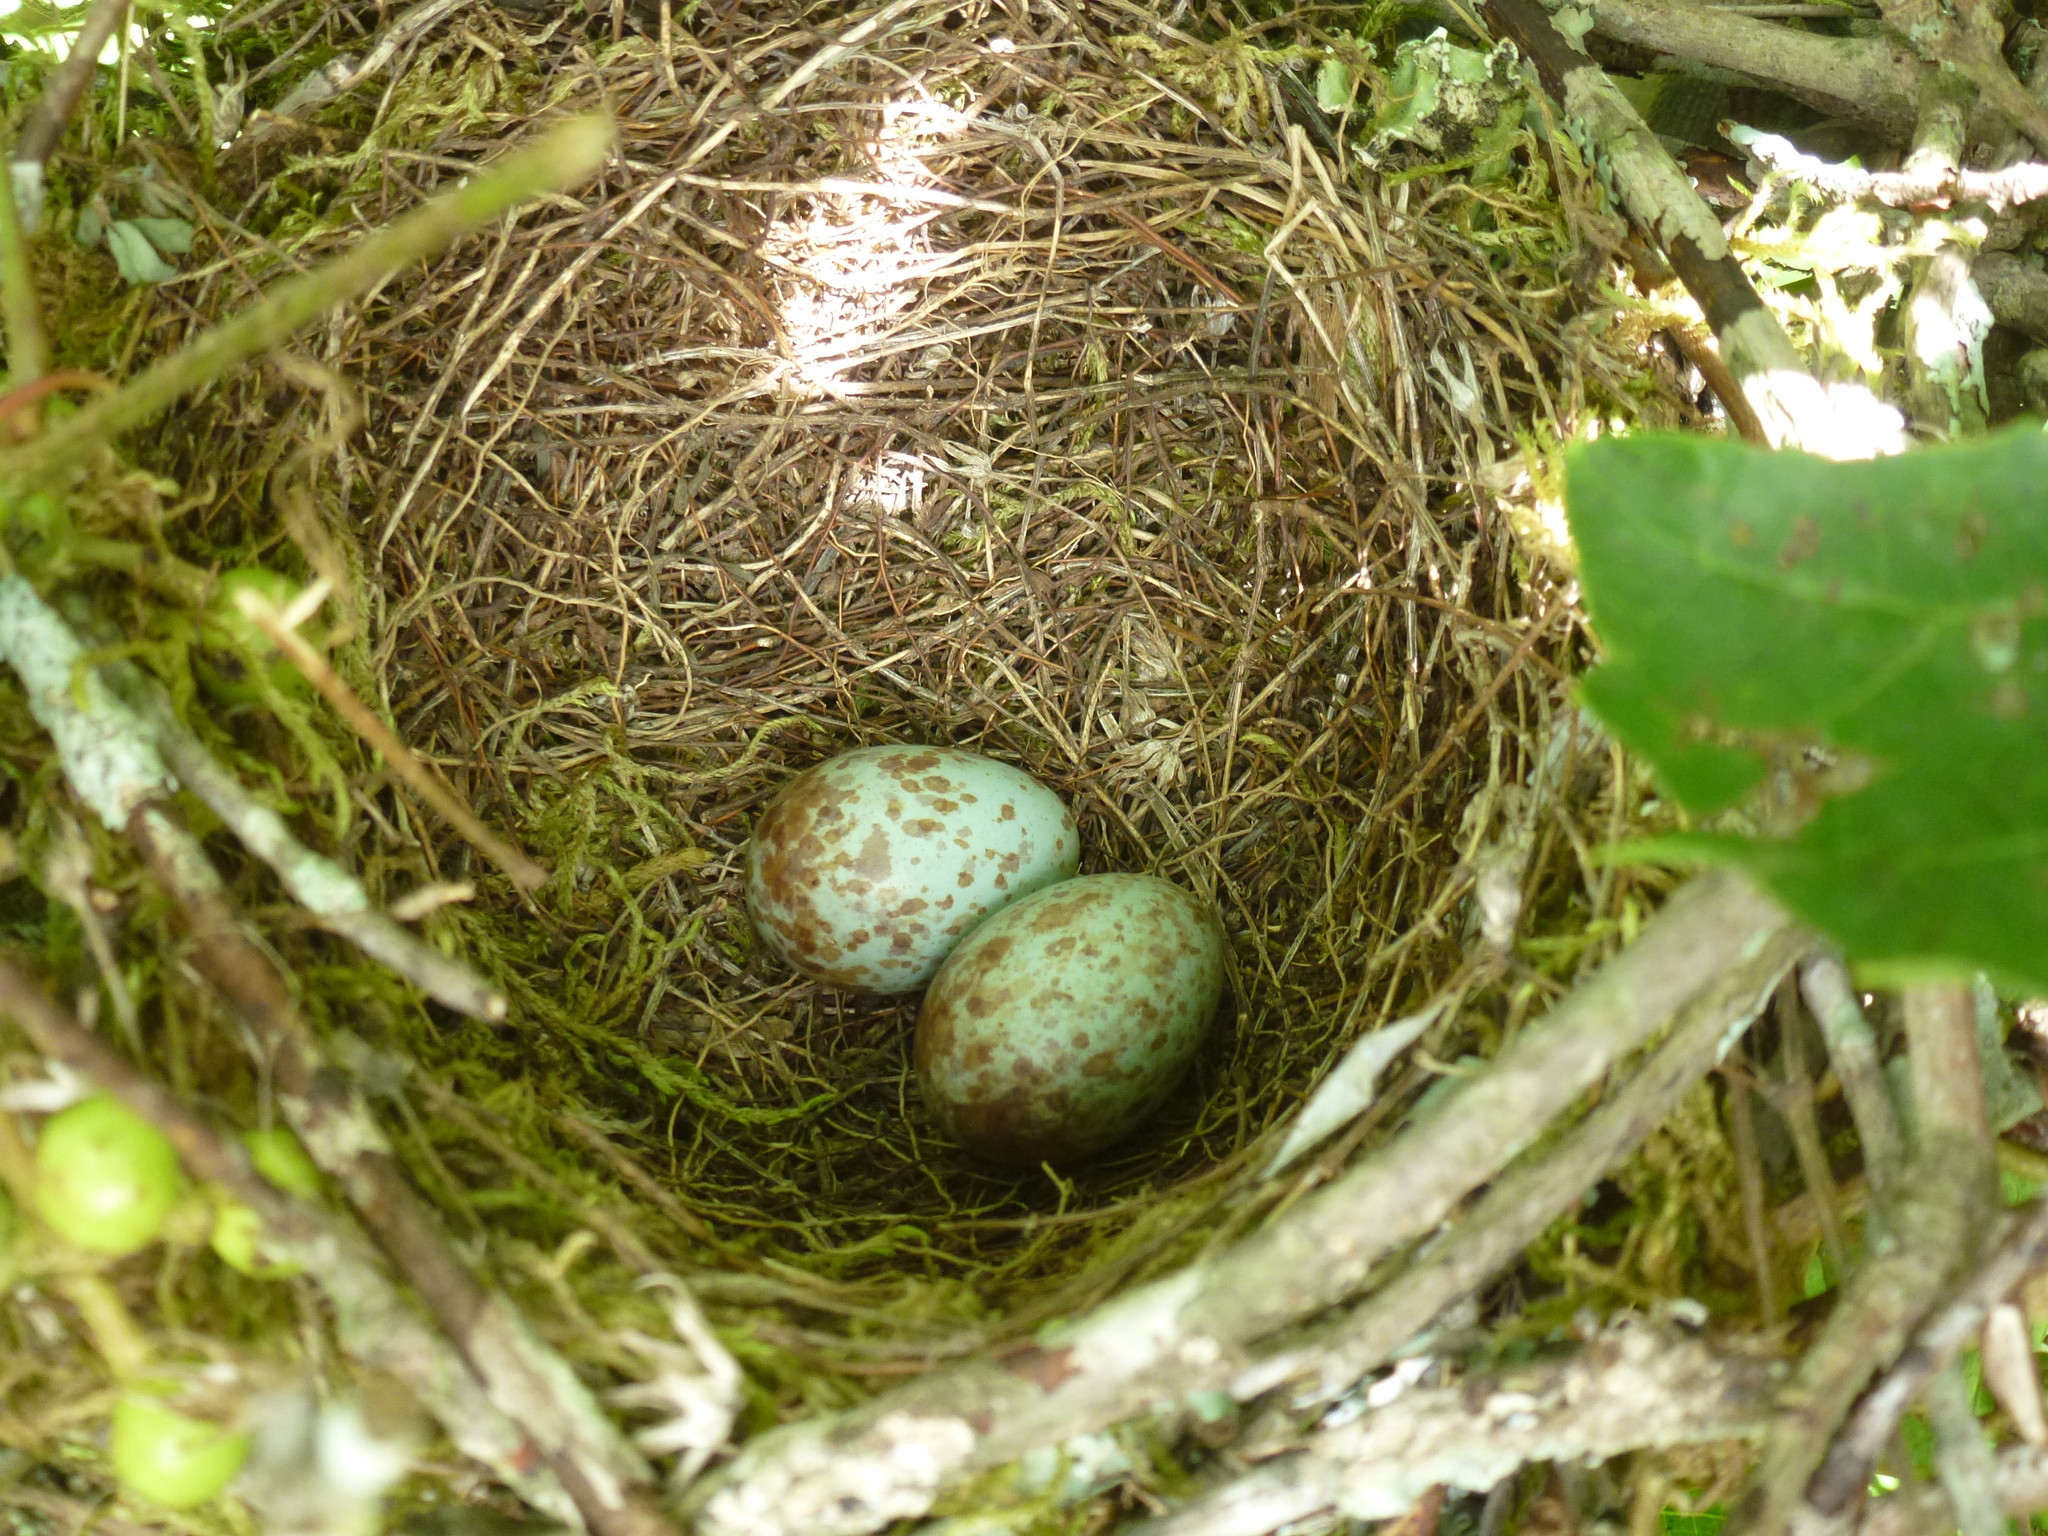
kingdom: Animalia
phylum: Chordata
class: Aves
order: Passeriformes
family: Mimidae
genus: Mimus
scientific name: Mimus polyglottos
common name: Northern mockingbird
